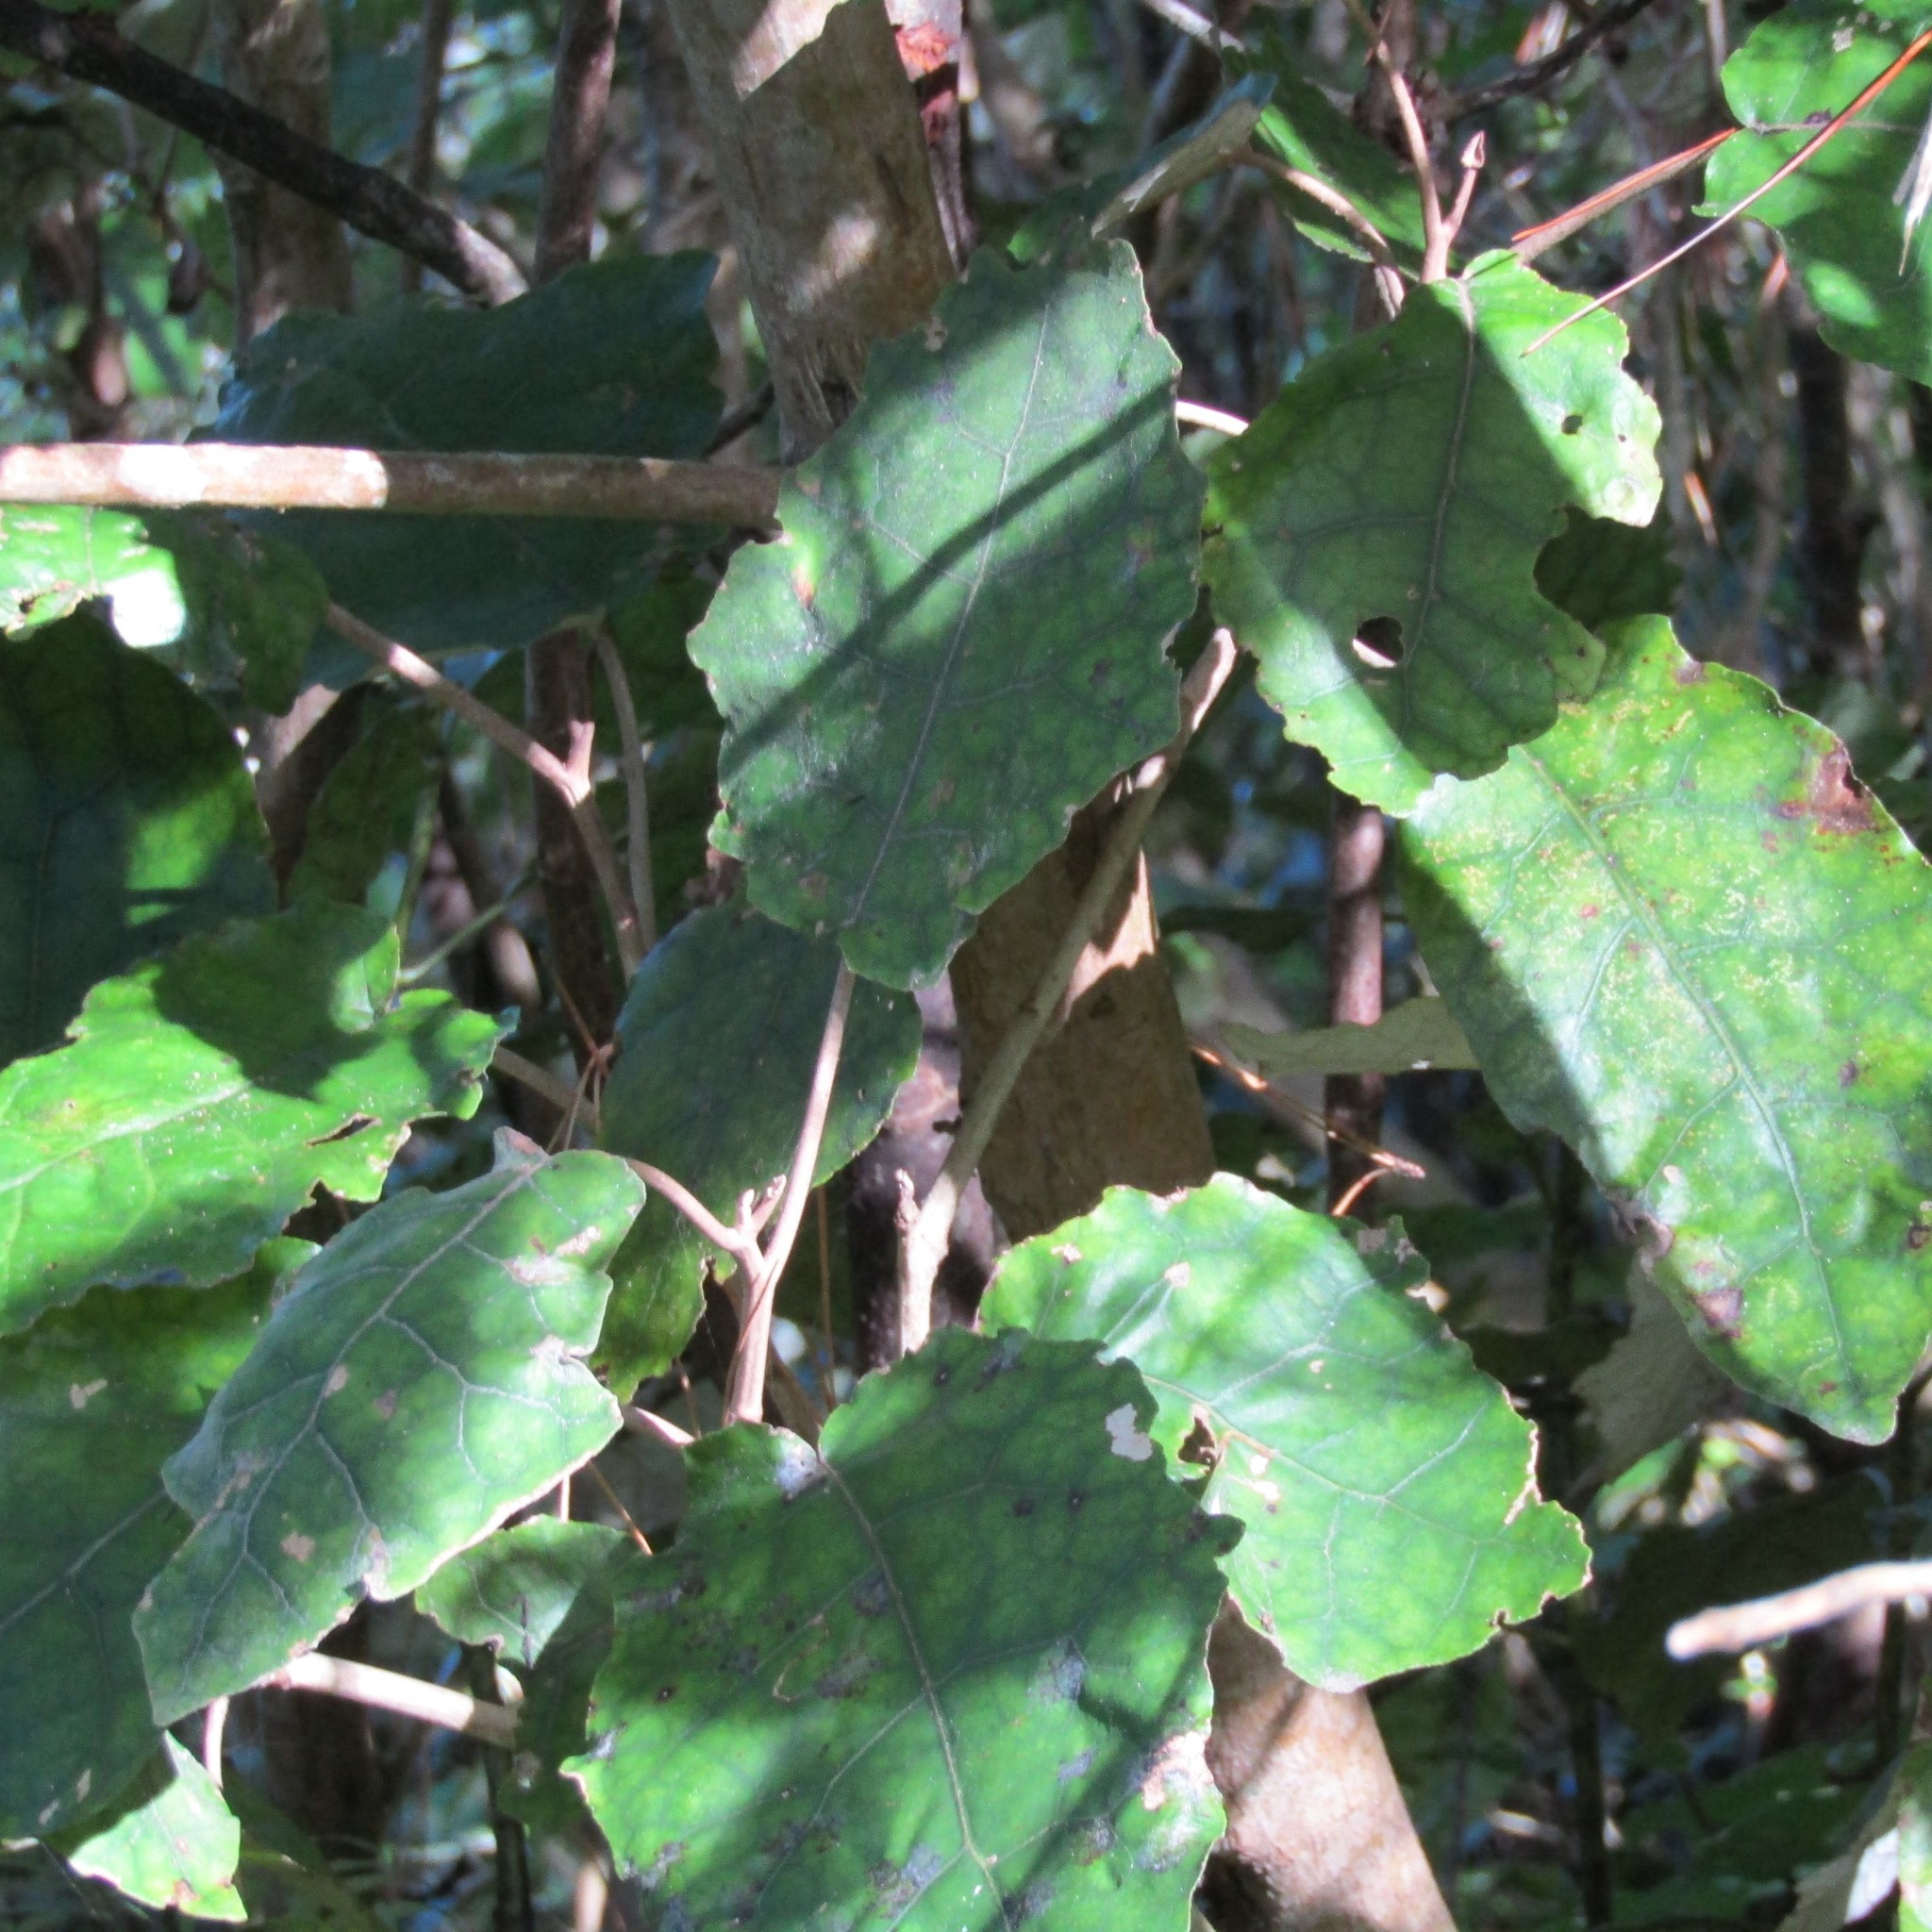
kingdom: Plantae
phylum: Tracheophyta
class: Magnoliopsida
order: Asterales
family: Asteraceae
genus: Brachyglottis
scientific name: Brachyglottis repanda
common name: Hedge ragwort
